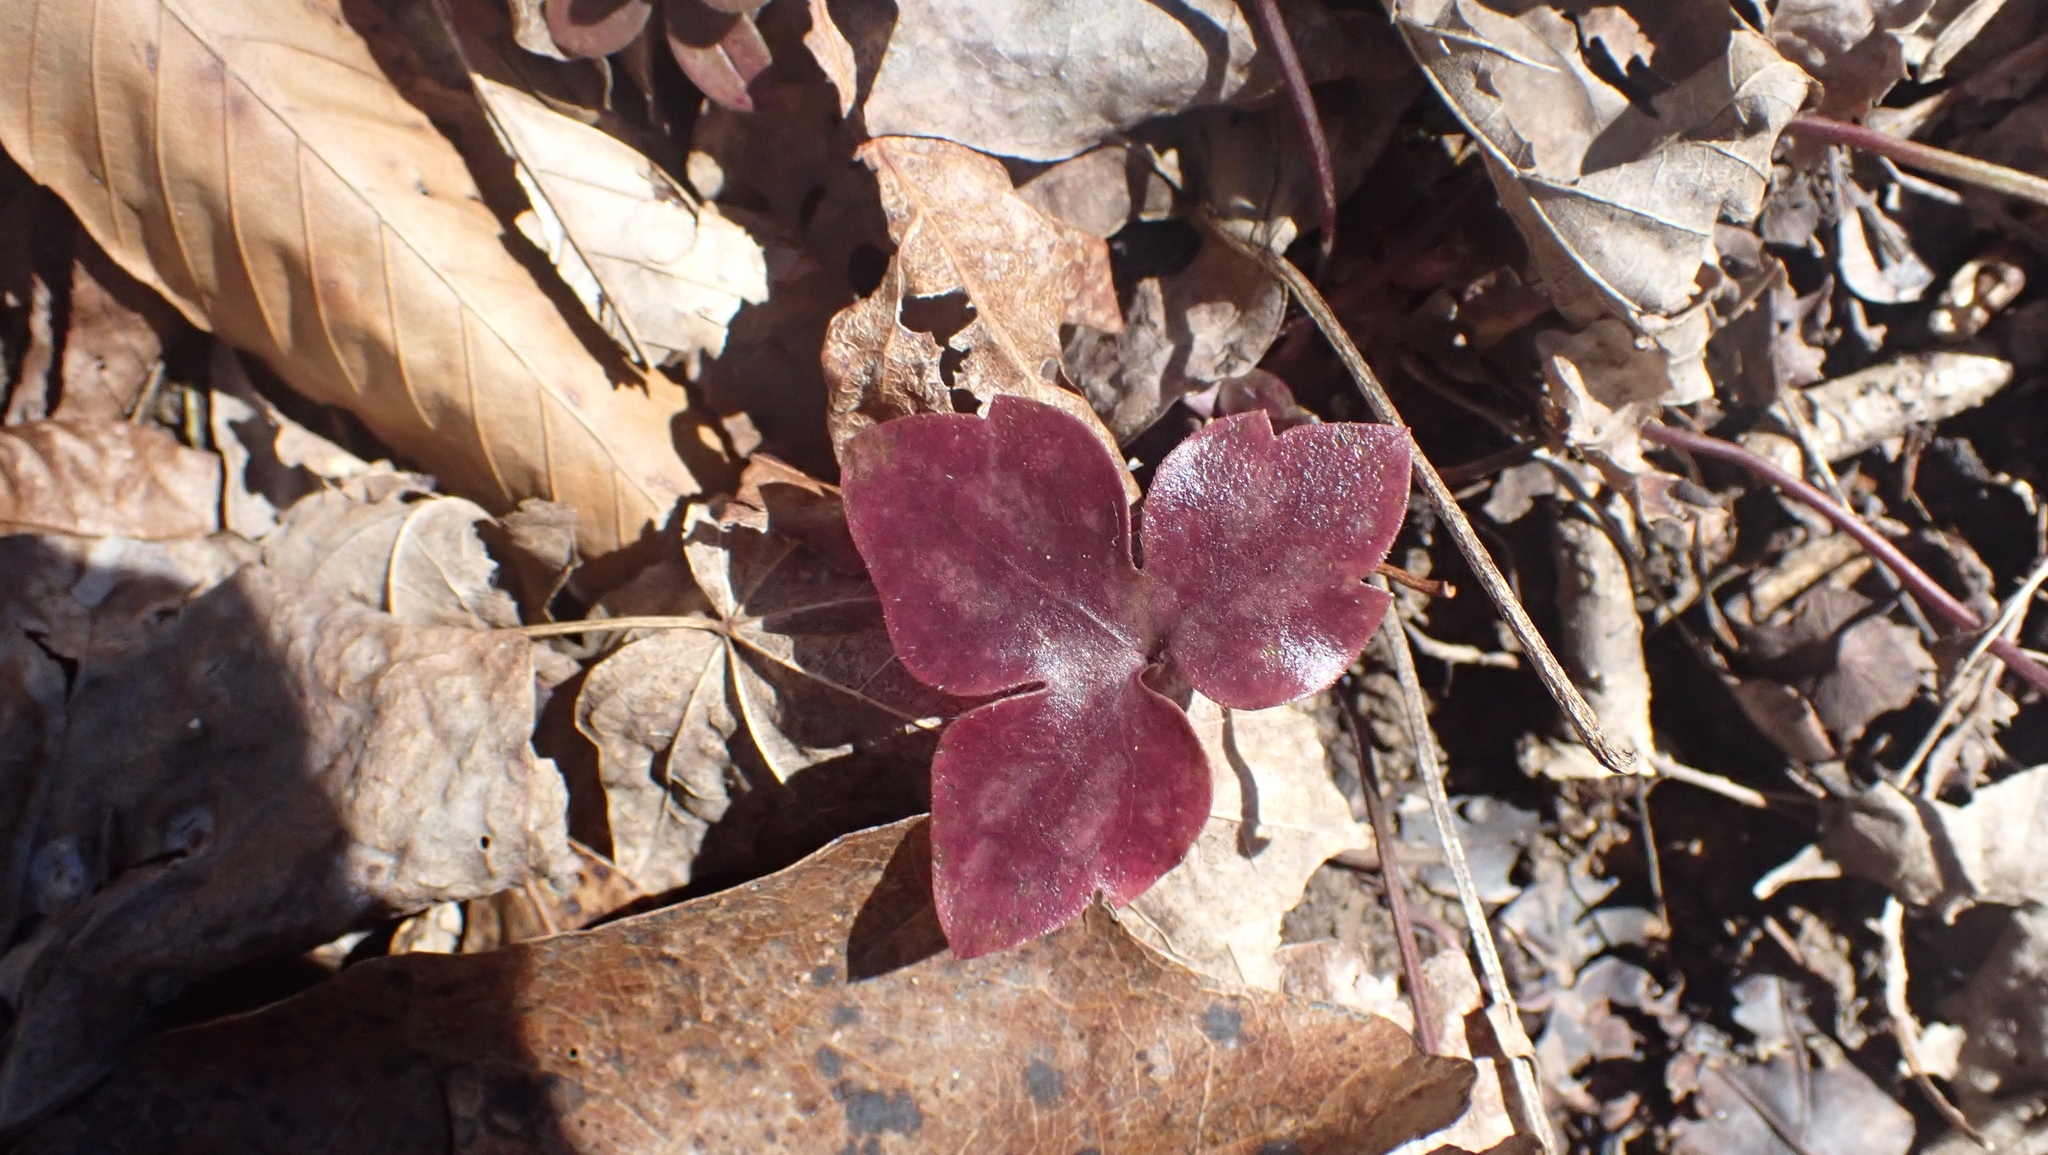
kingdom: Plantae
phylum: Tracheophyta
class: Magnoliopsida
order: Ranunculales
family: Ranunculaceae
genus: Hepatica
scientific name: Hepatica acutiloba
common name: Sharp-lobed hepatica
